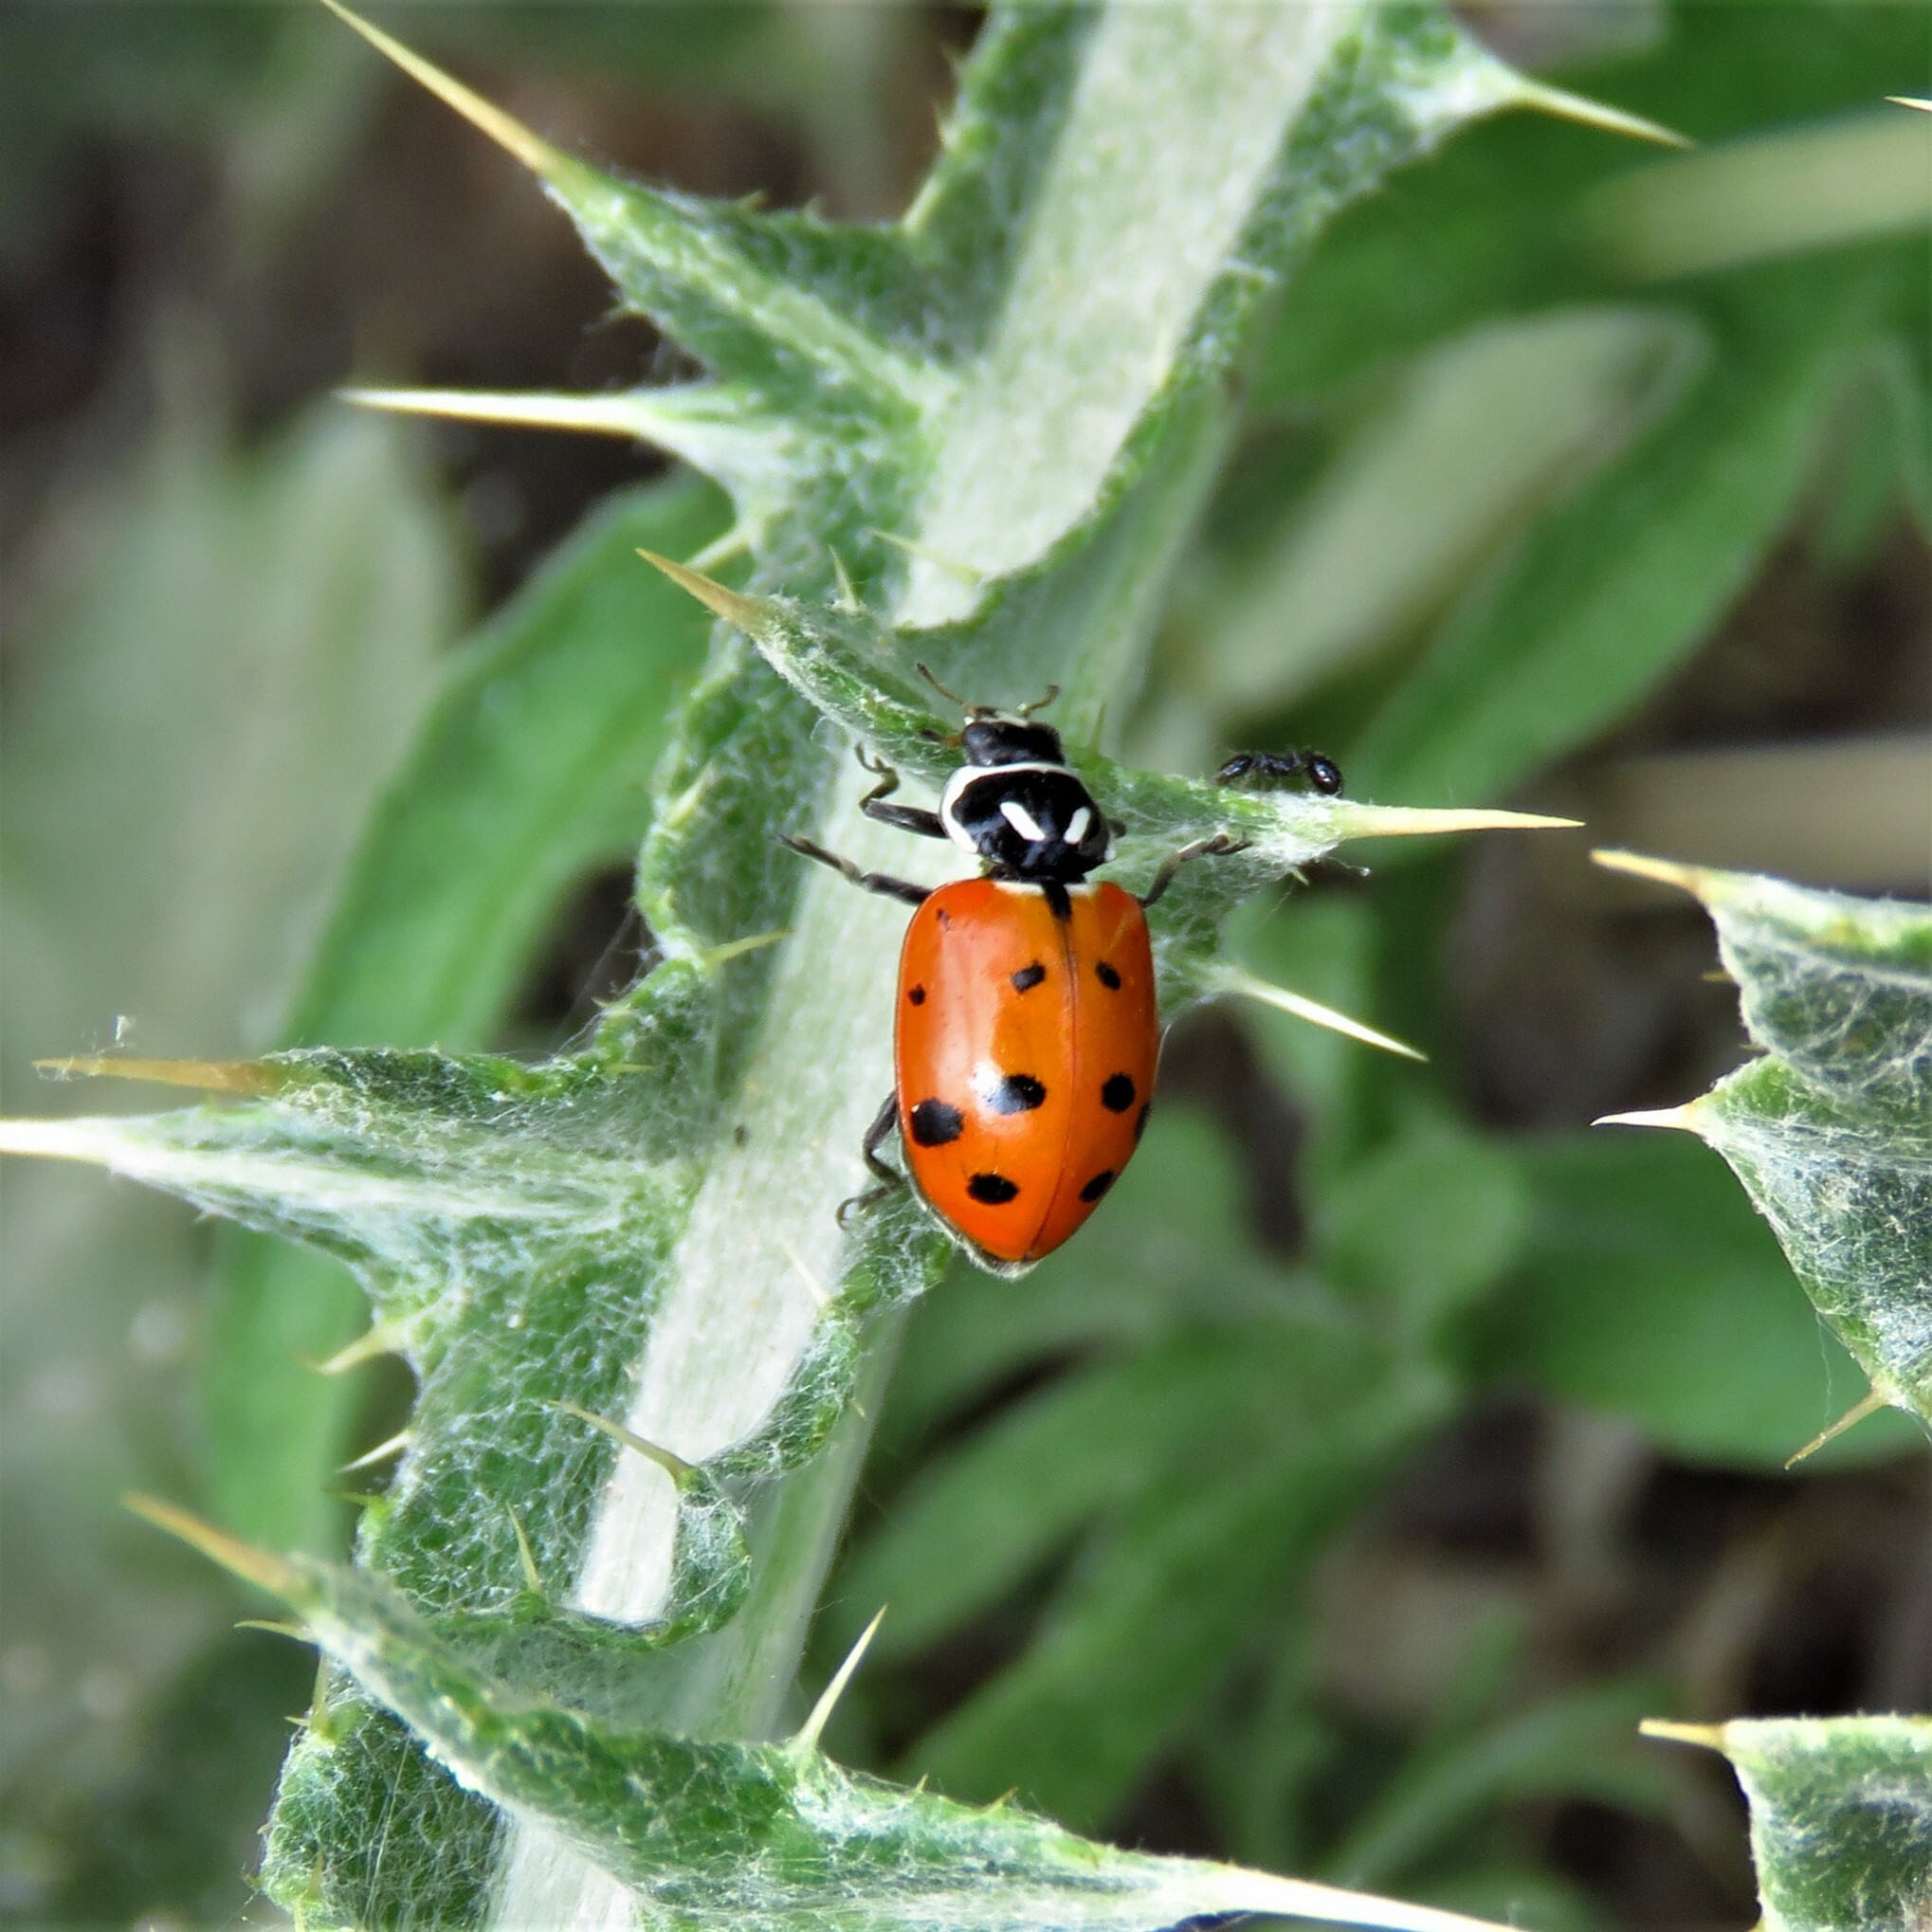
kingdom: Animalia
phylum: Arthropoda
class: Insecta
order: Coleoptera
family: Coccinellidae
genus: Hippodamia
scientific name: Hippodamia convergens
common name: Convergent lady beetle
